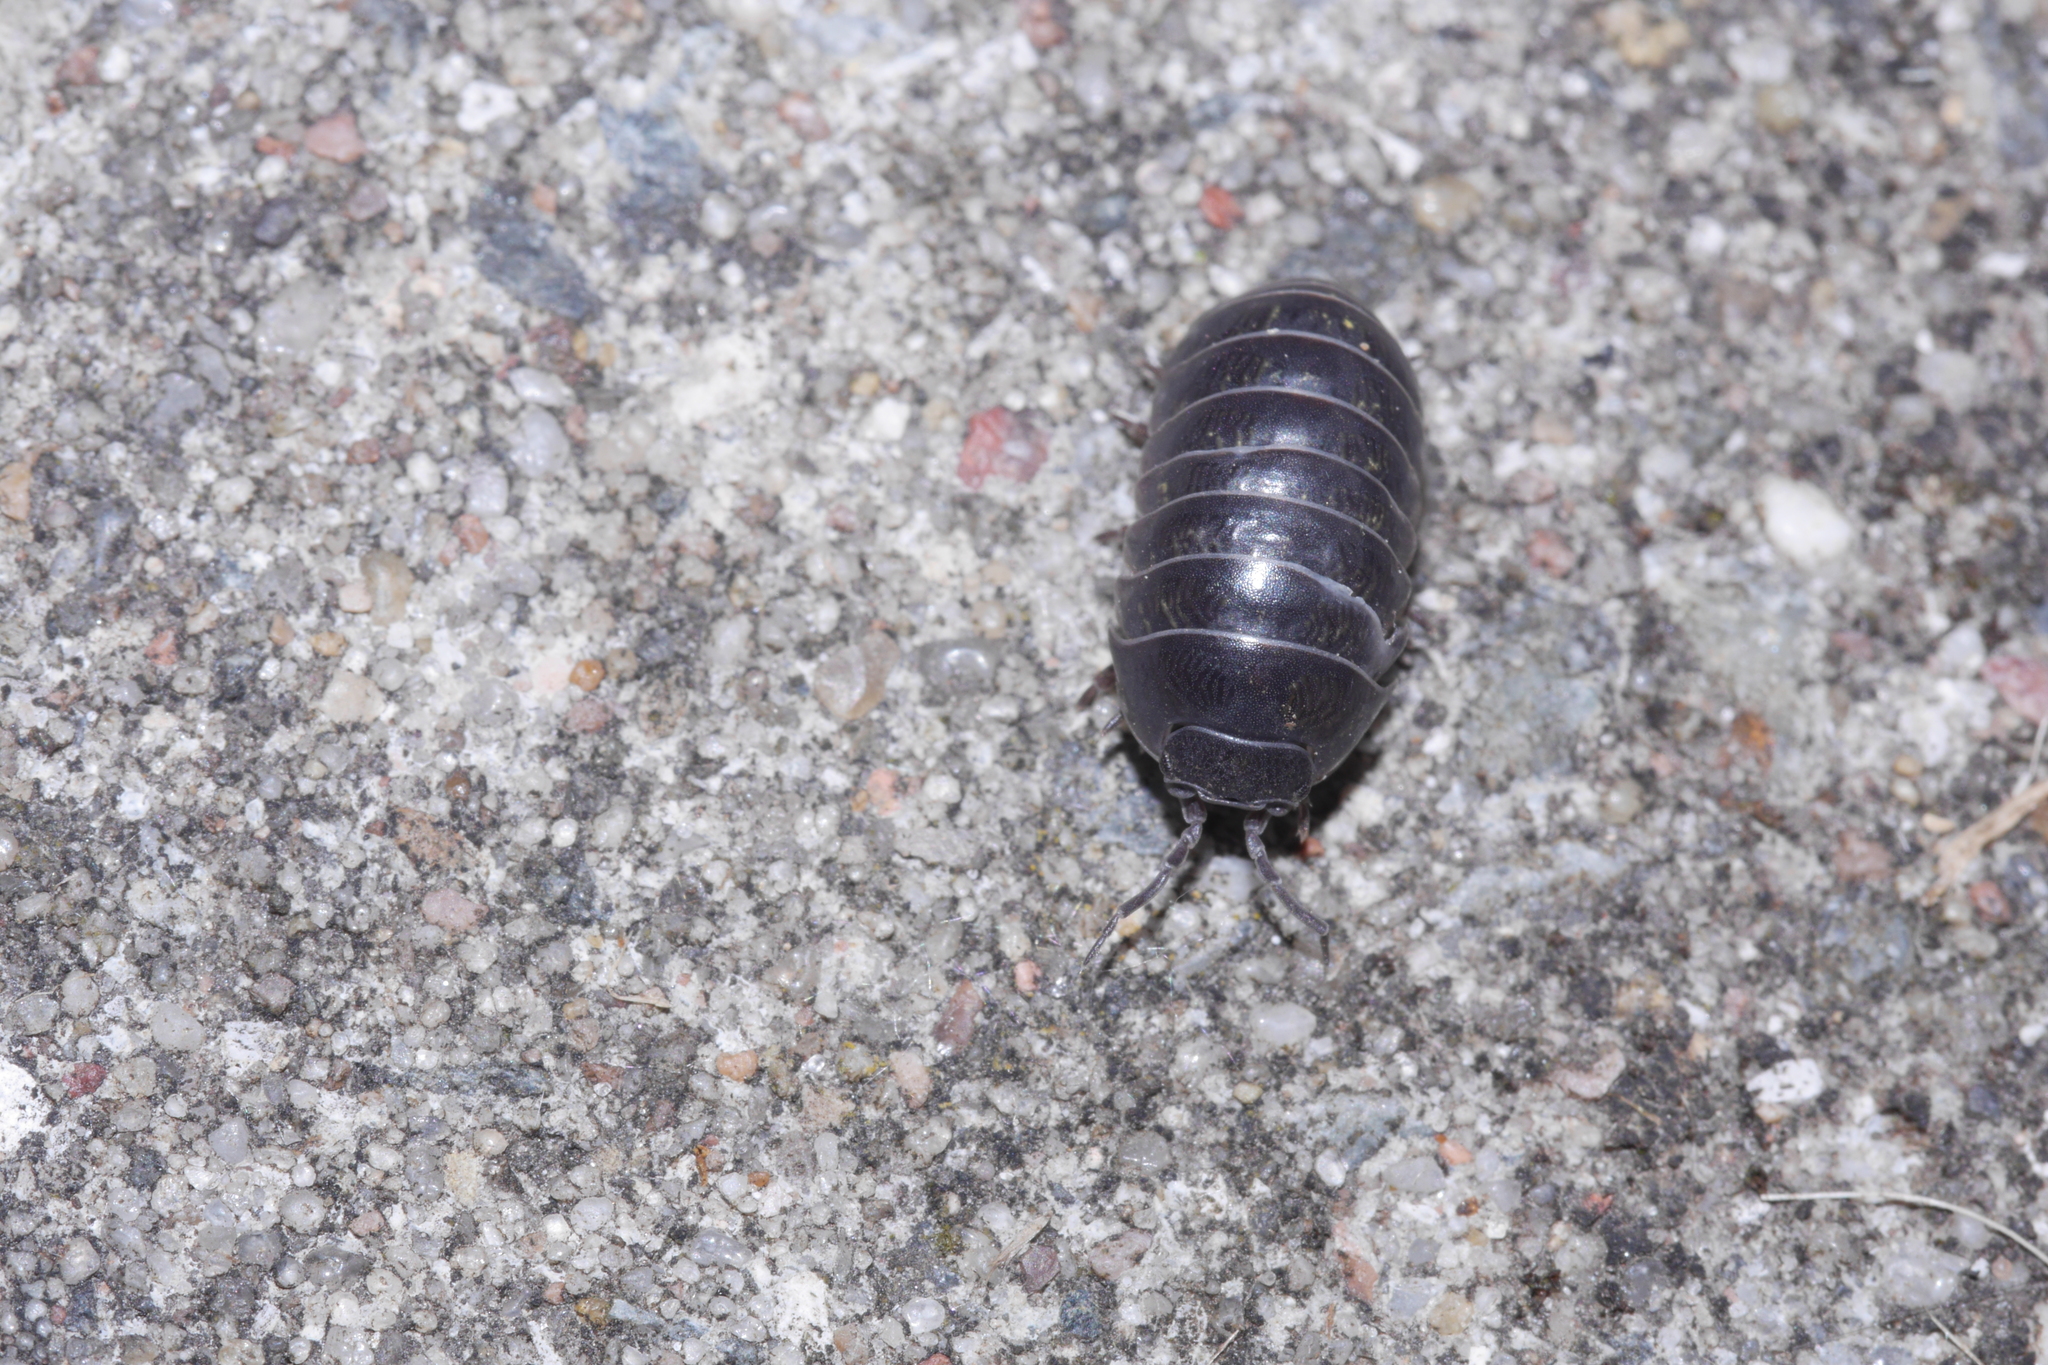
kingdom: Animalia
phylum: Arthropoda
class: Malacostraca
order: Isopoda
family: Armadillidiidae
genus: Armadillidium
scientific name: Armadillidium vulgare
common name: Common pill woodlouse
